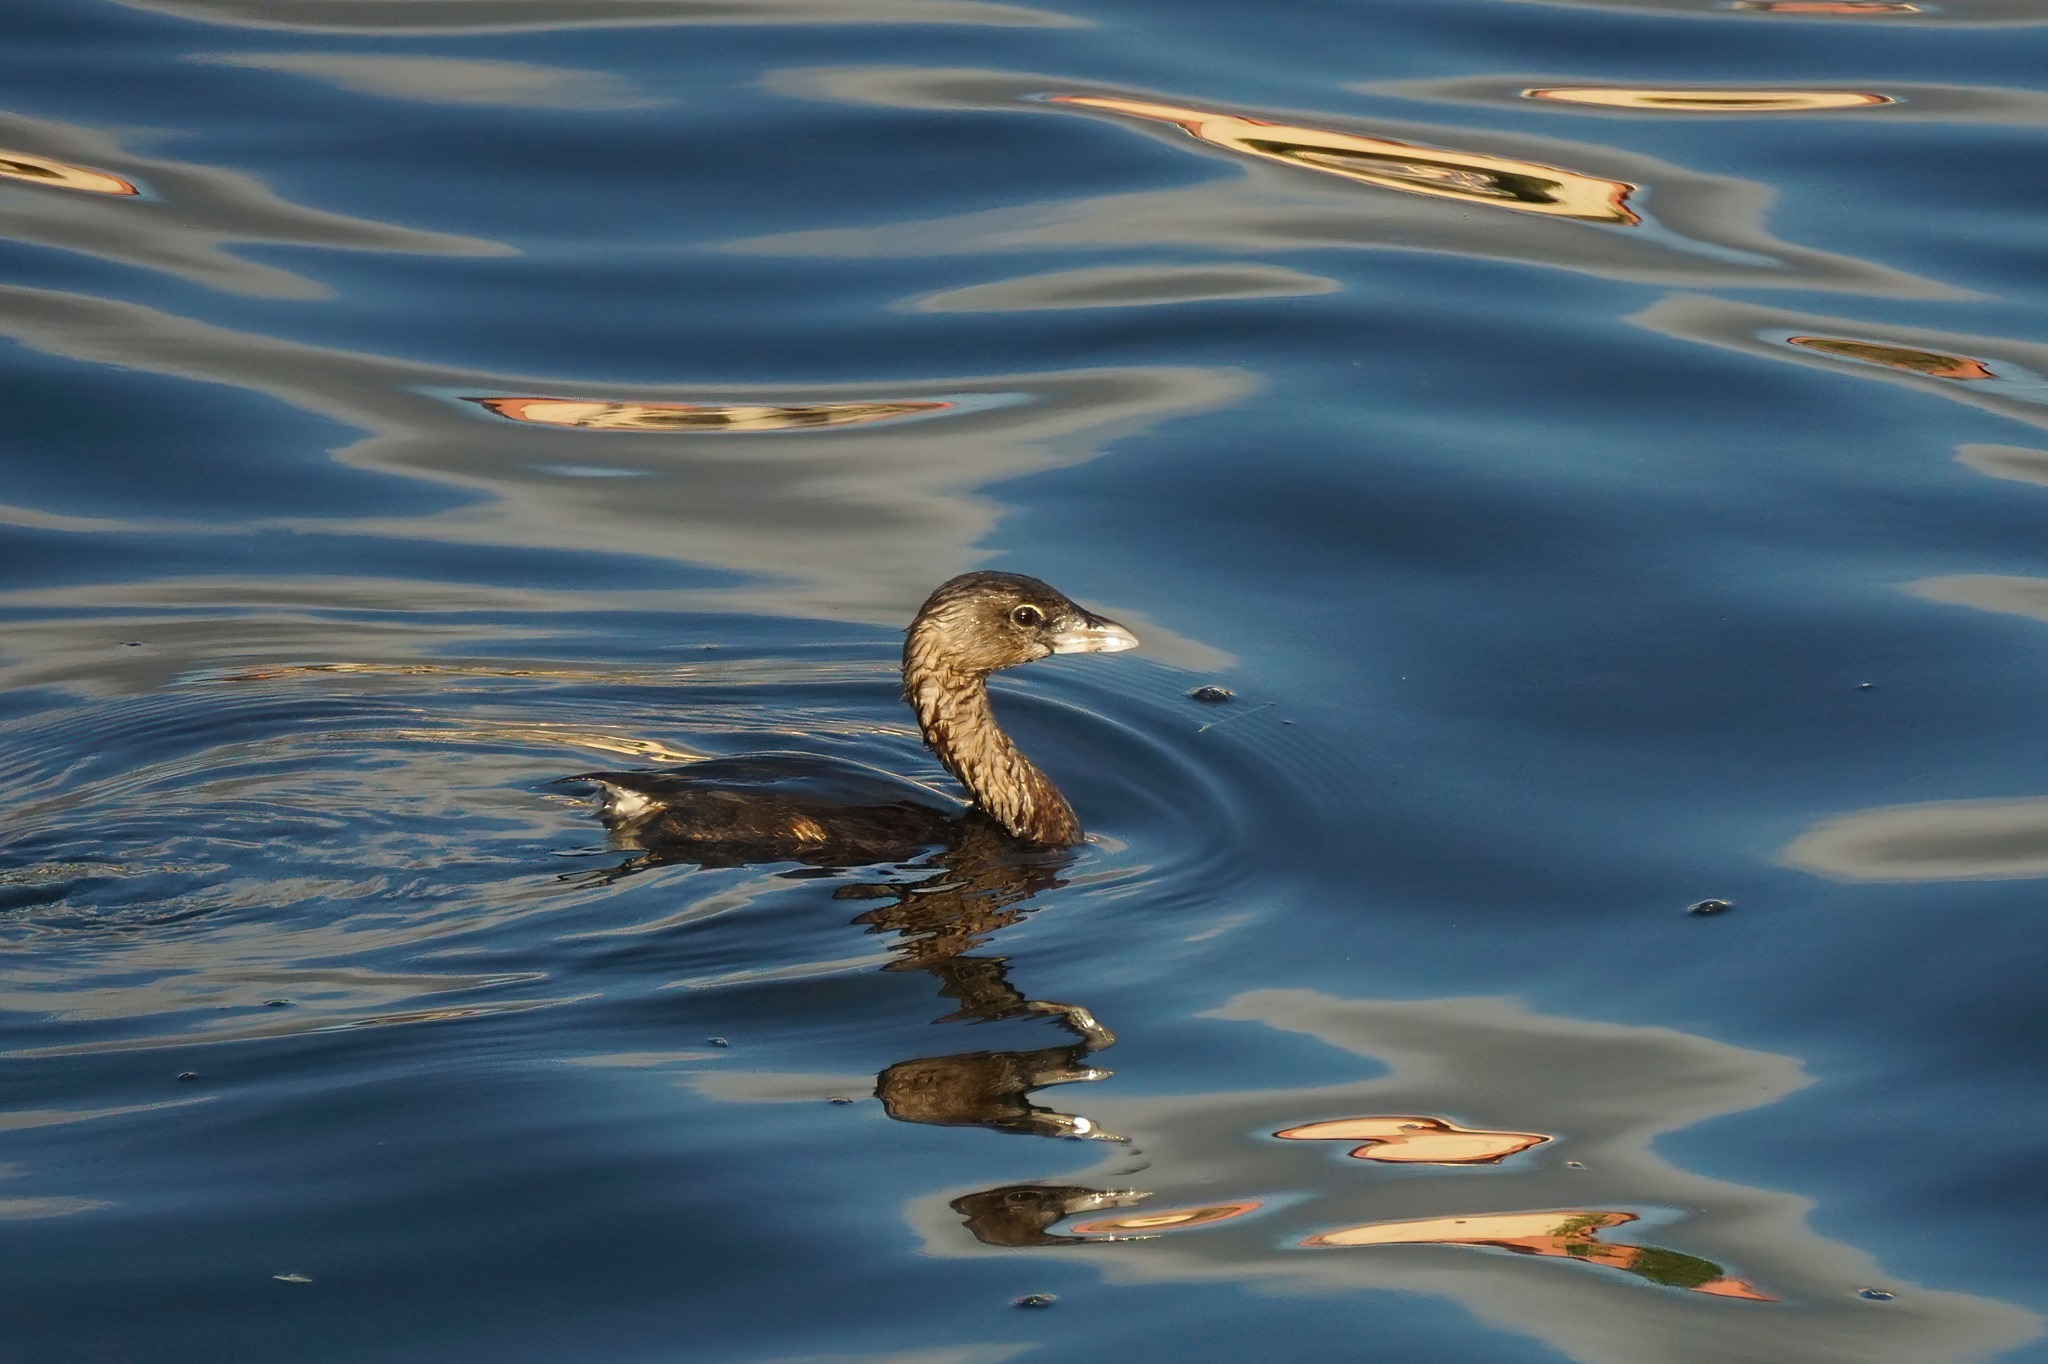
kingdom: Animalia
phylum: Chordata
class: Aves
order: Podicipediformes
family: Podicipedidae
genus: Podilymbus
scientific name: Podilymbus podiceps
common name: Pied-billed grebe
